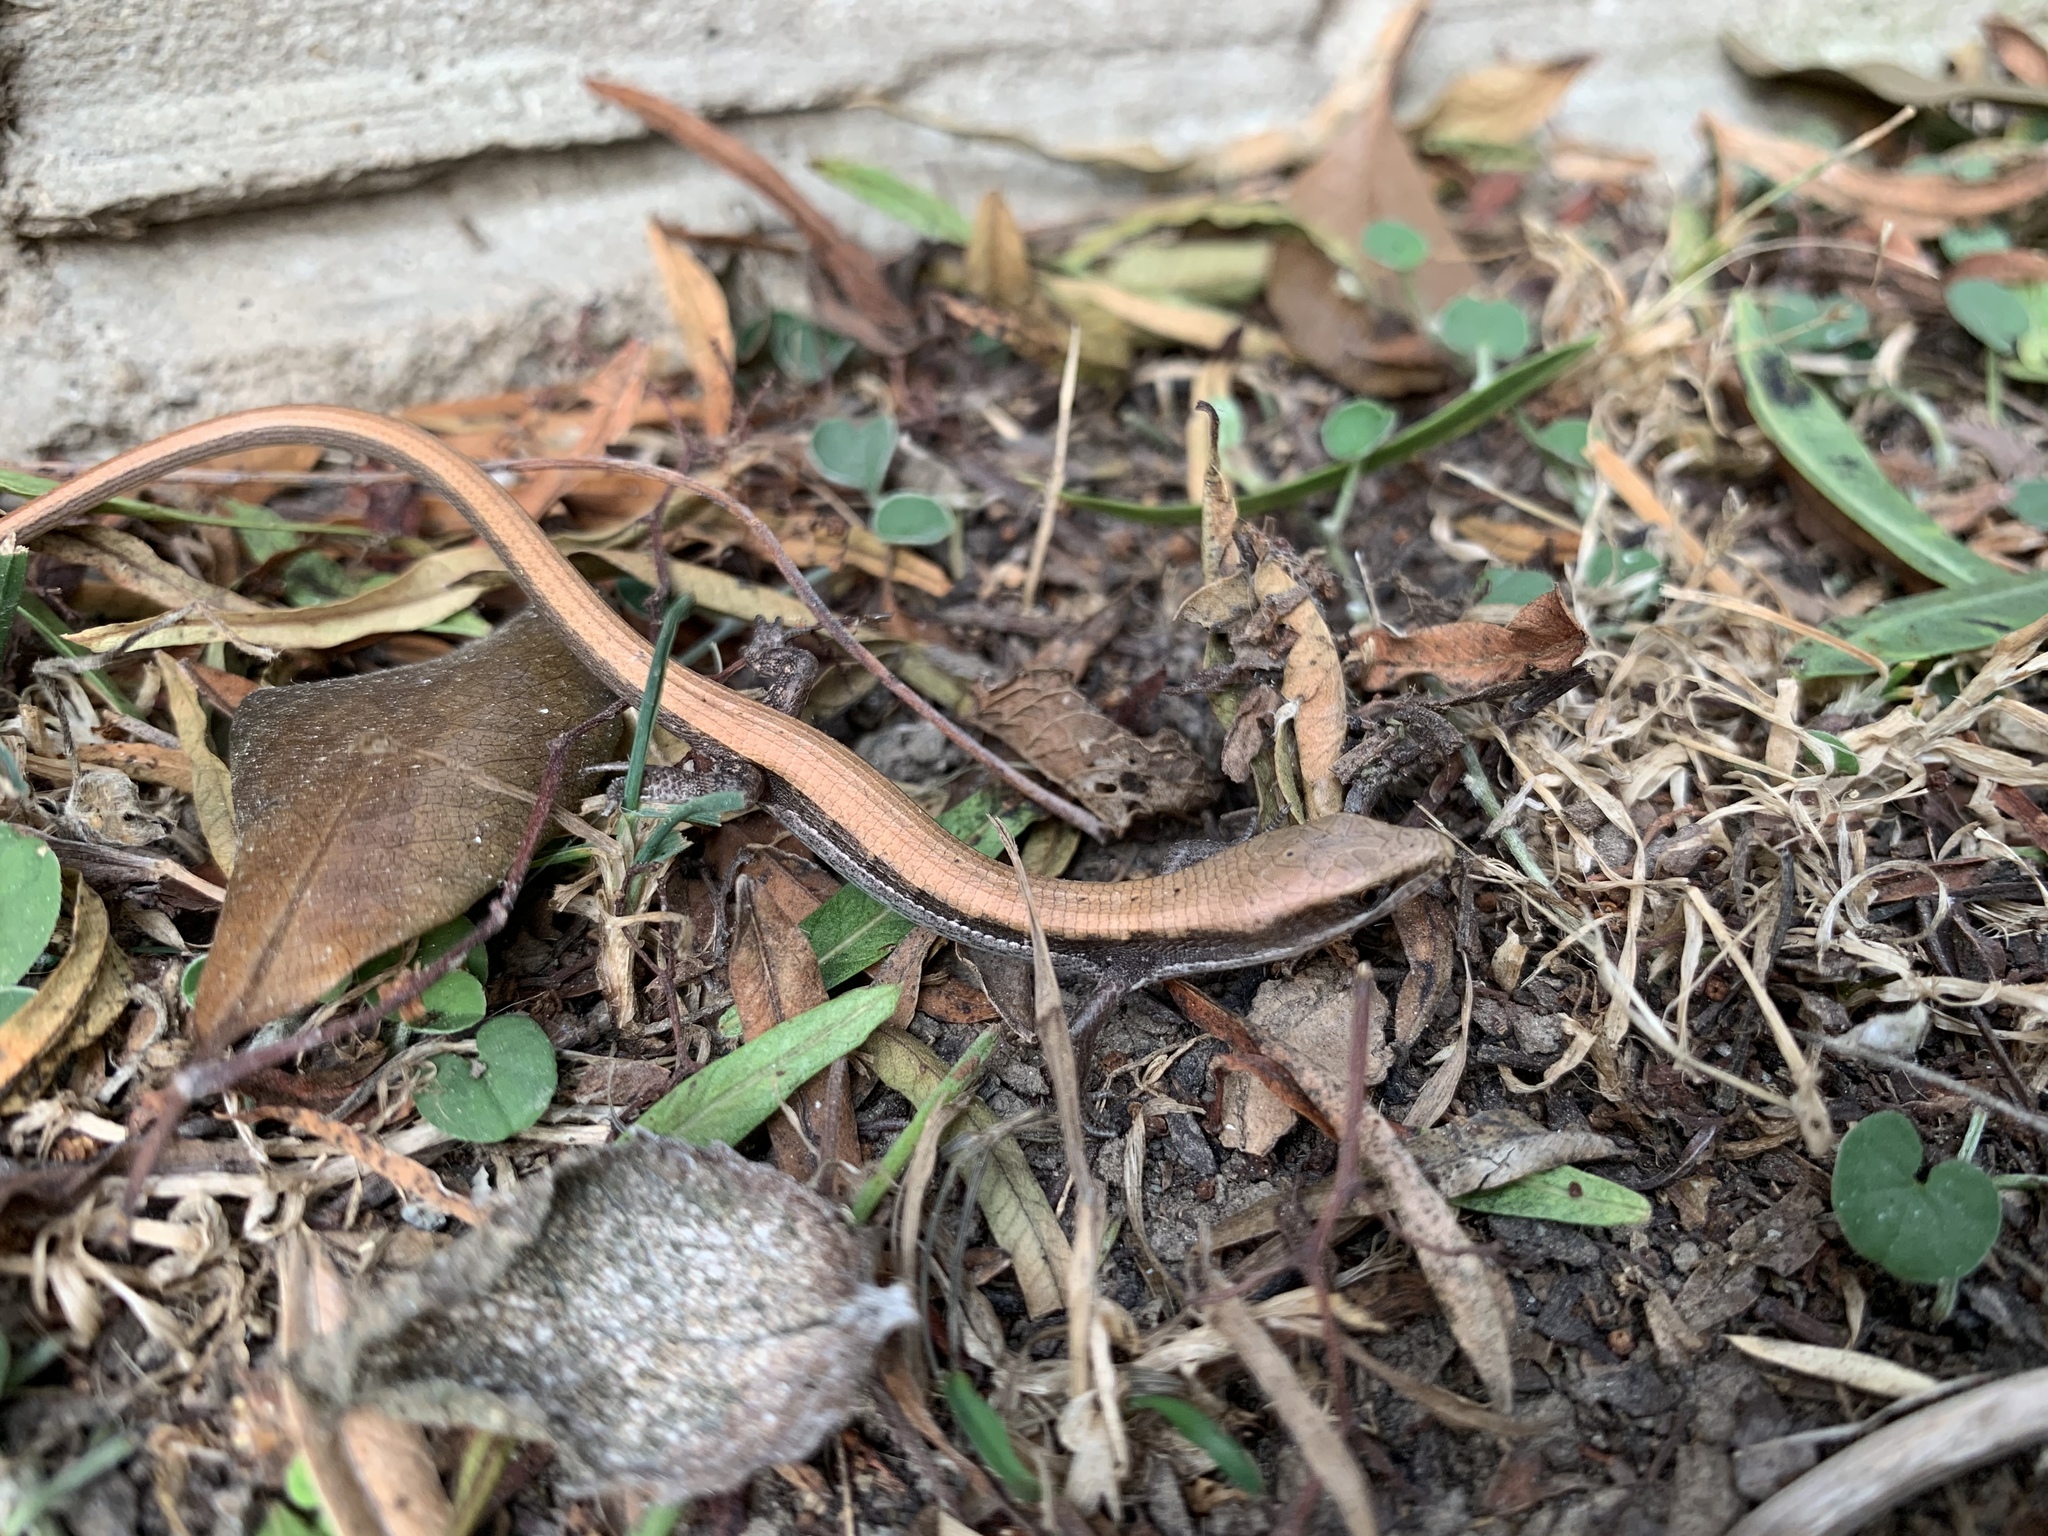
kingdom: Animalia
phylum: Chordata
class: Squamata
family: Anguidae
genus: Elgaria
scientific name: Elgaria multicarinata
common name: Southern alligator lizard
